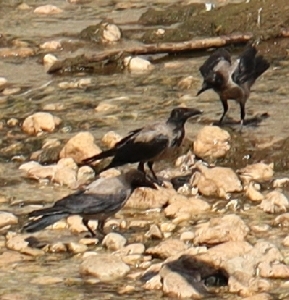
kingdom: Animalia
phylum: Chordata
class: Aves
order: Passeriformes
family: Corvidae
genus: Corvus
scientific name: Corvus cornix
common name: Hooded crow
